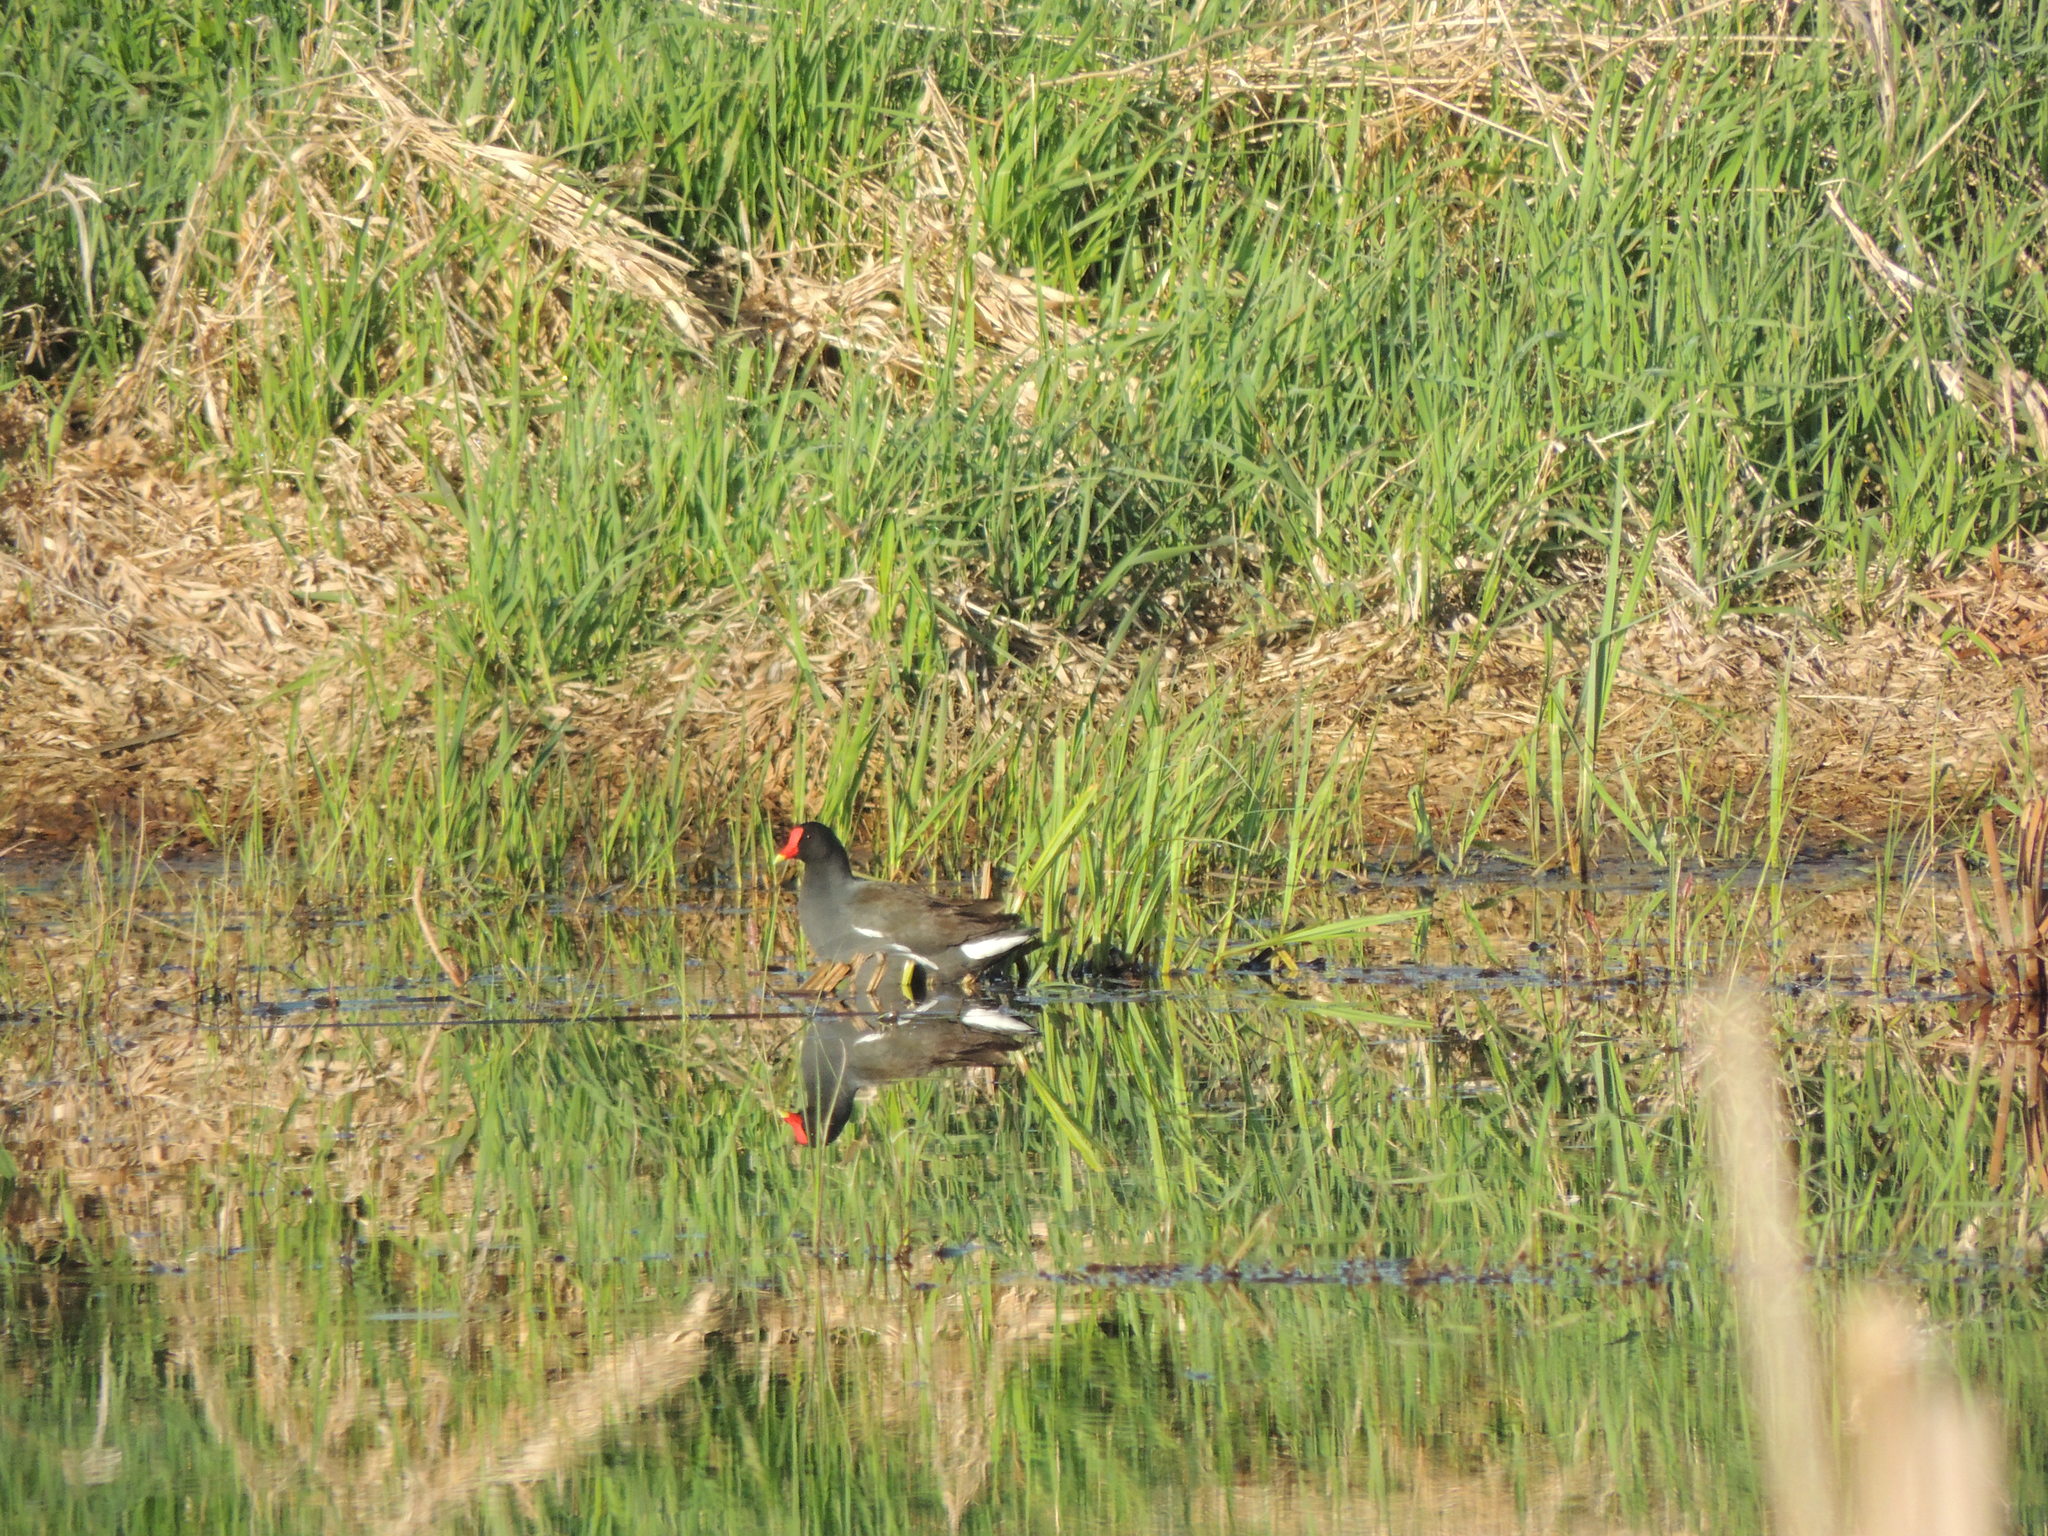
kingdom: Animalia
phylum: Chordata
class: Aves
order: Gruiformes
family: Rallidae
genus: Gallinula
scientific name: Gallinula chloropus
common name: Common moorhen
